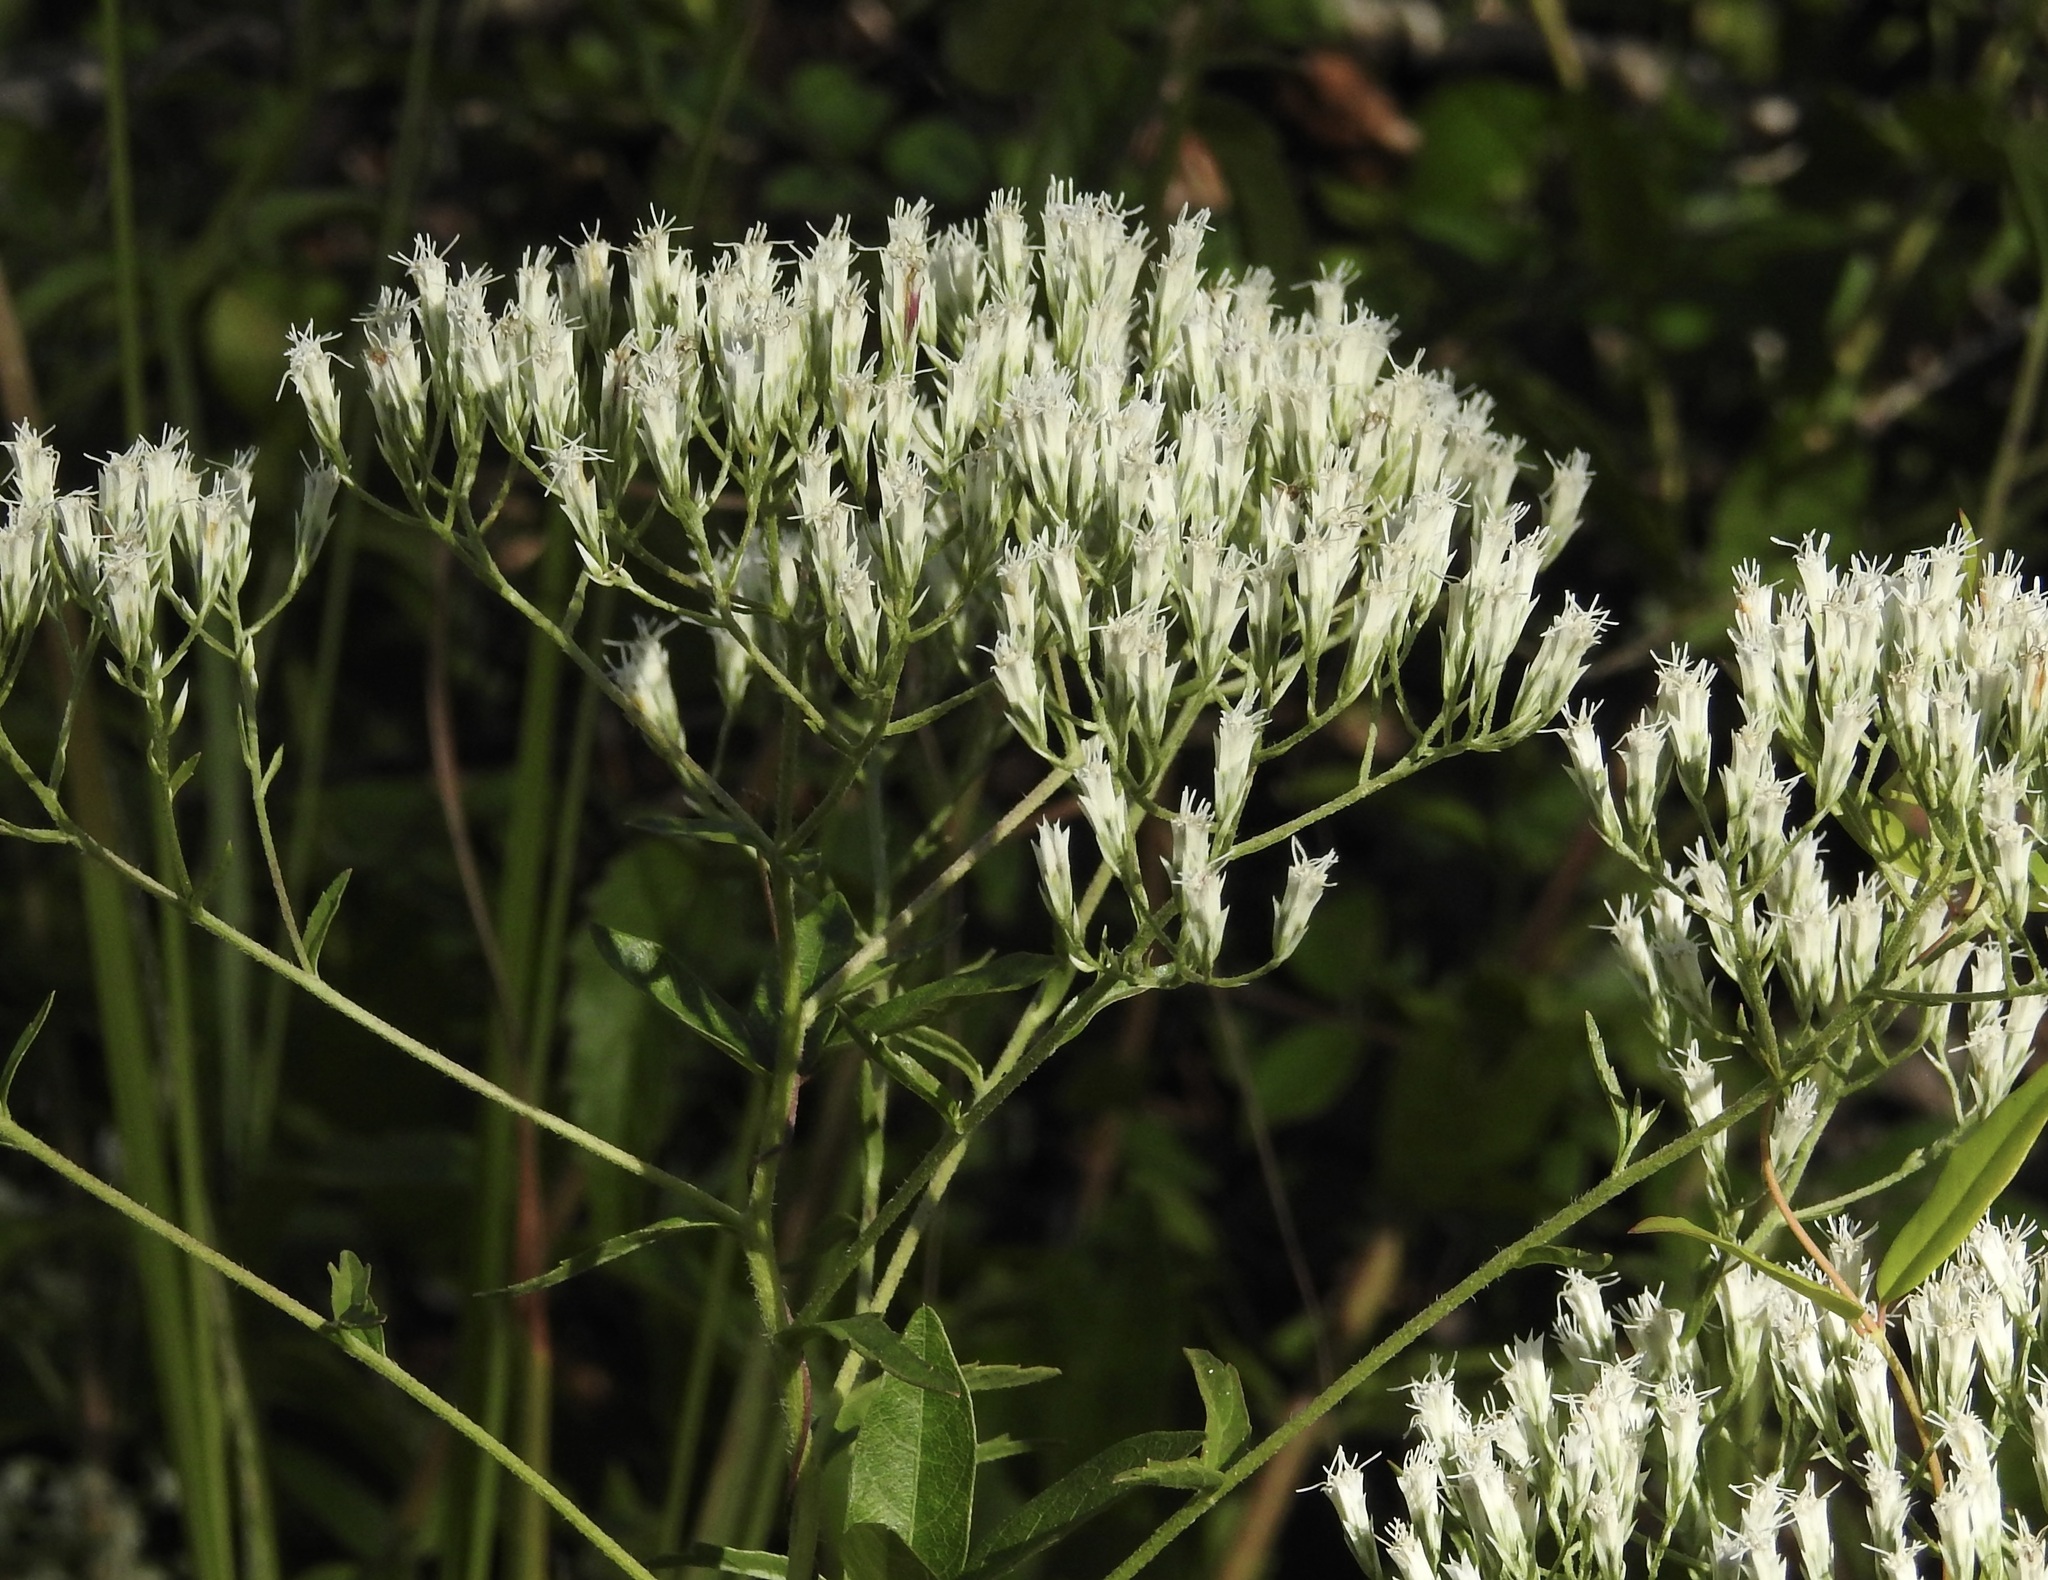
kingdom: Plantae
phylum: Tracheophyta
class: Magnoliopsida
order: Asterales
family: Asteraceae
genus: Eupatorium
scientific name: Eupatorium petaloideum
